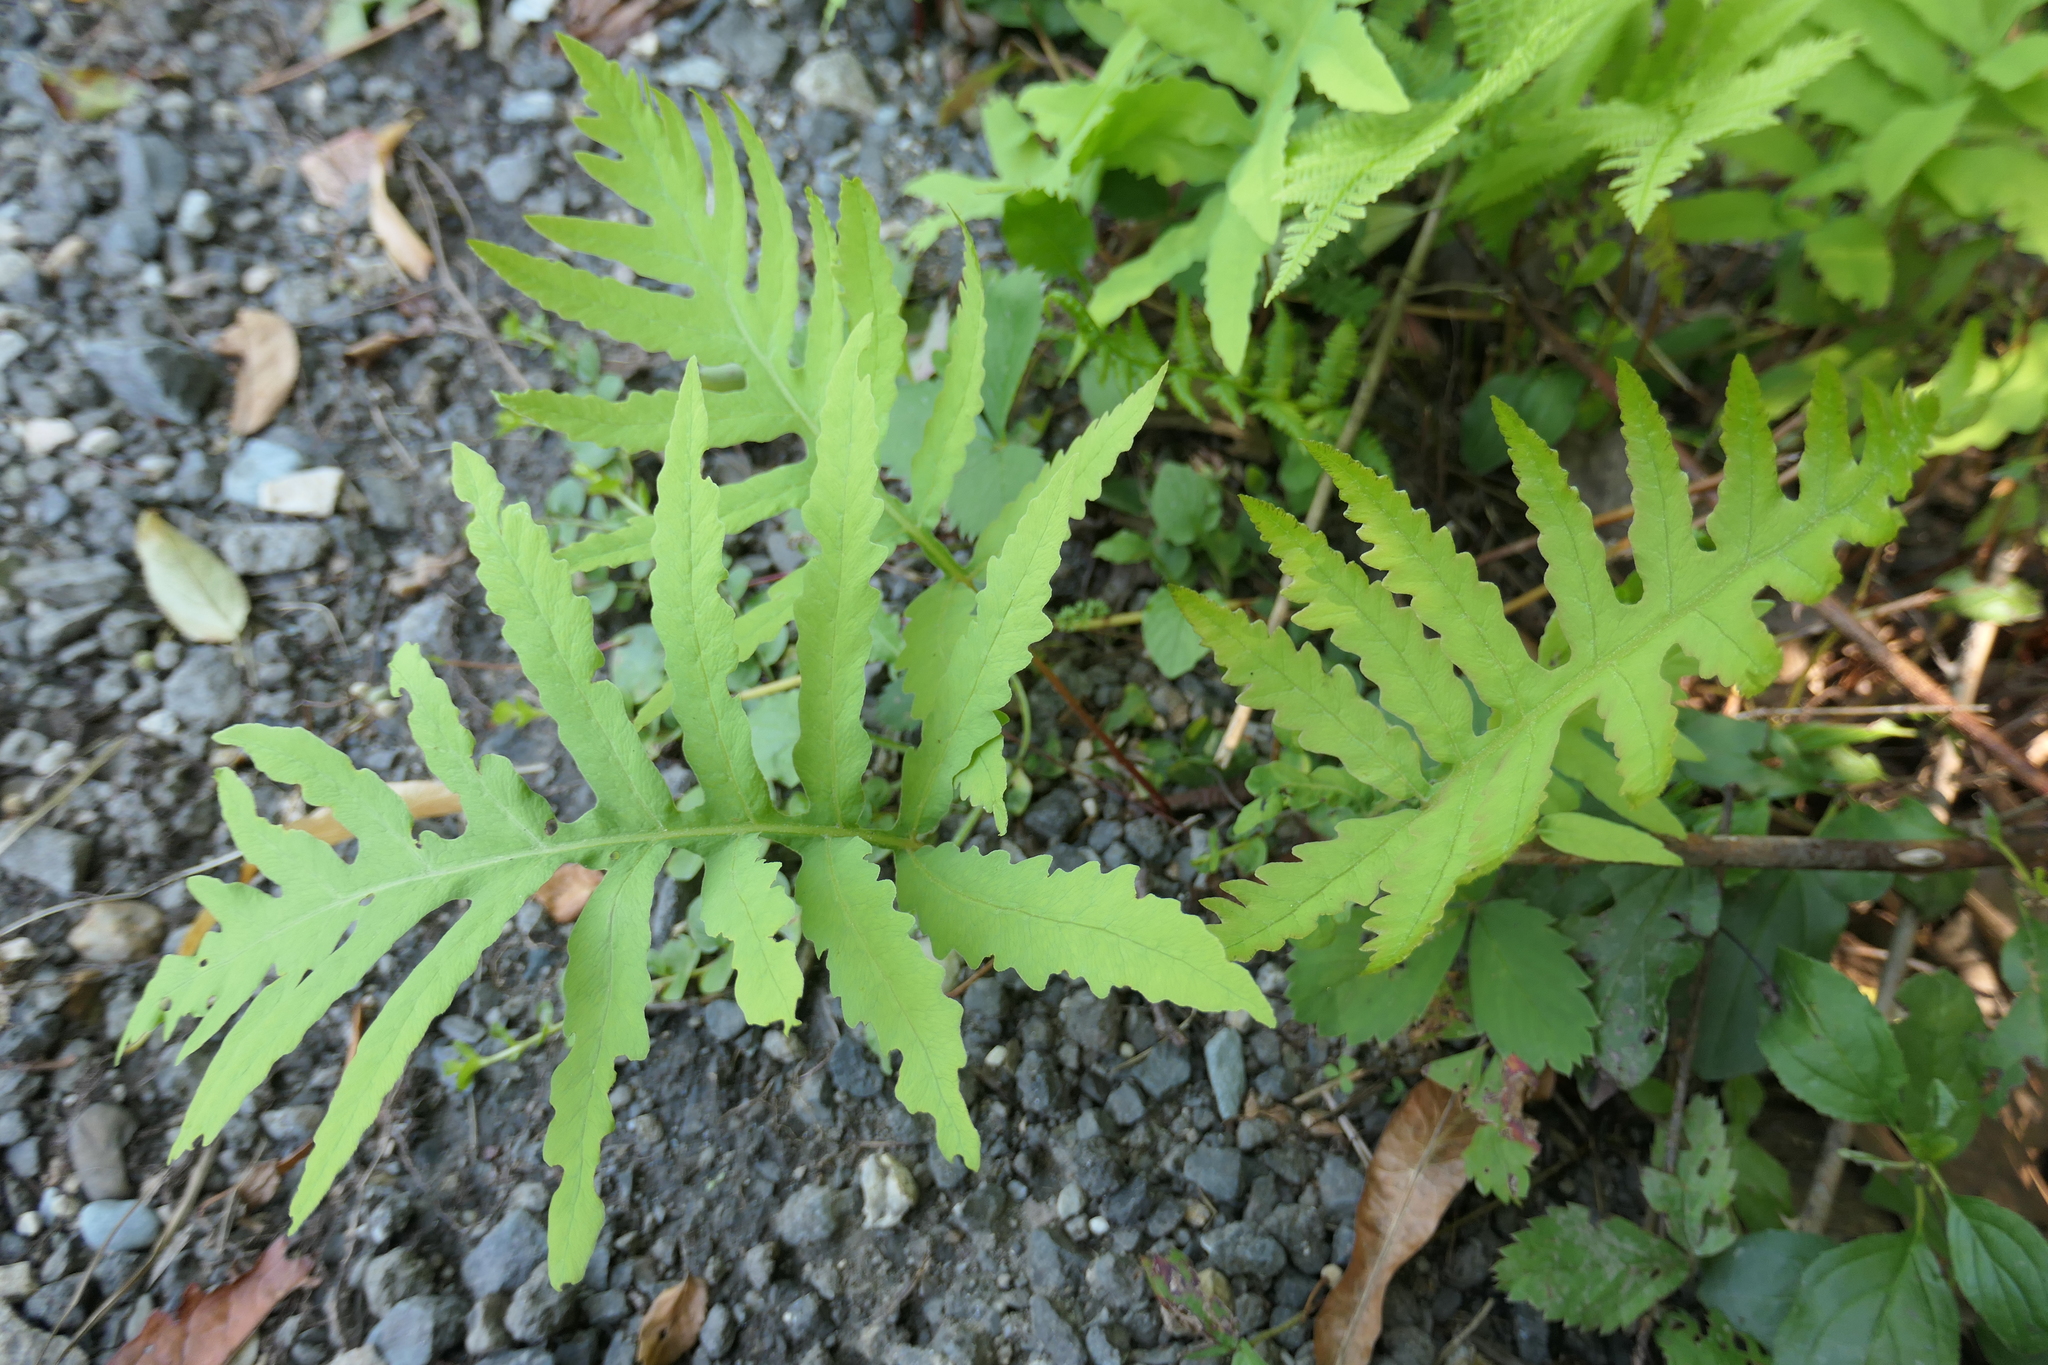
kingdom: Plantae
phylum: Tracheophyta
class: Polypodiopsida
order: Polypodiales
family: Onocleaceae
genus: Onoclea
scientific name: Onoclea sensibilis
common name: Sensitive fern
